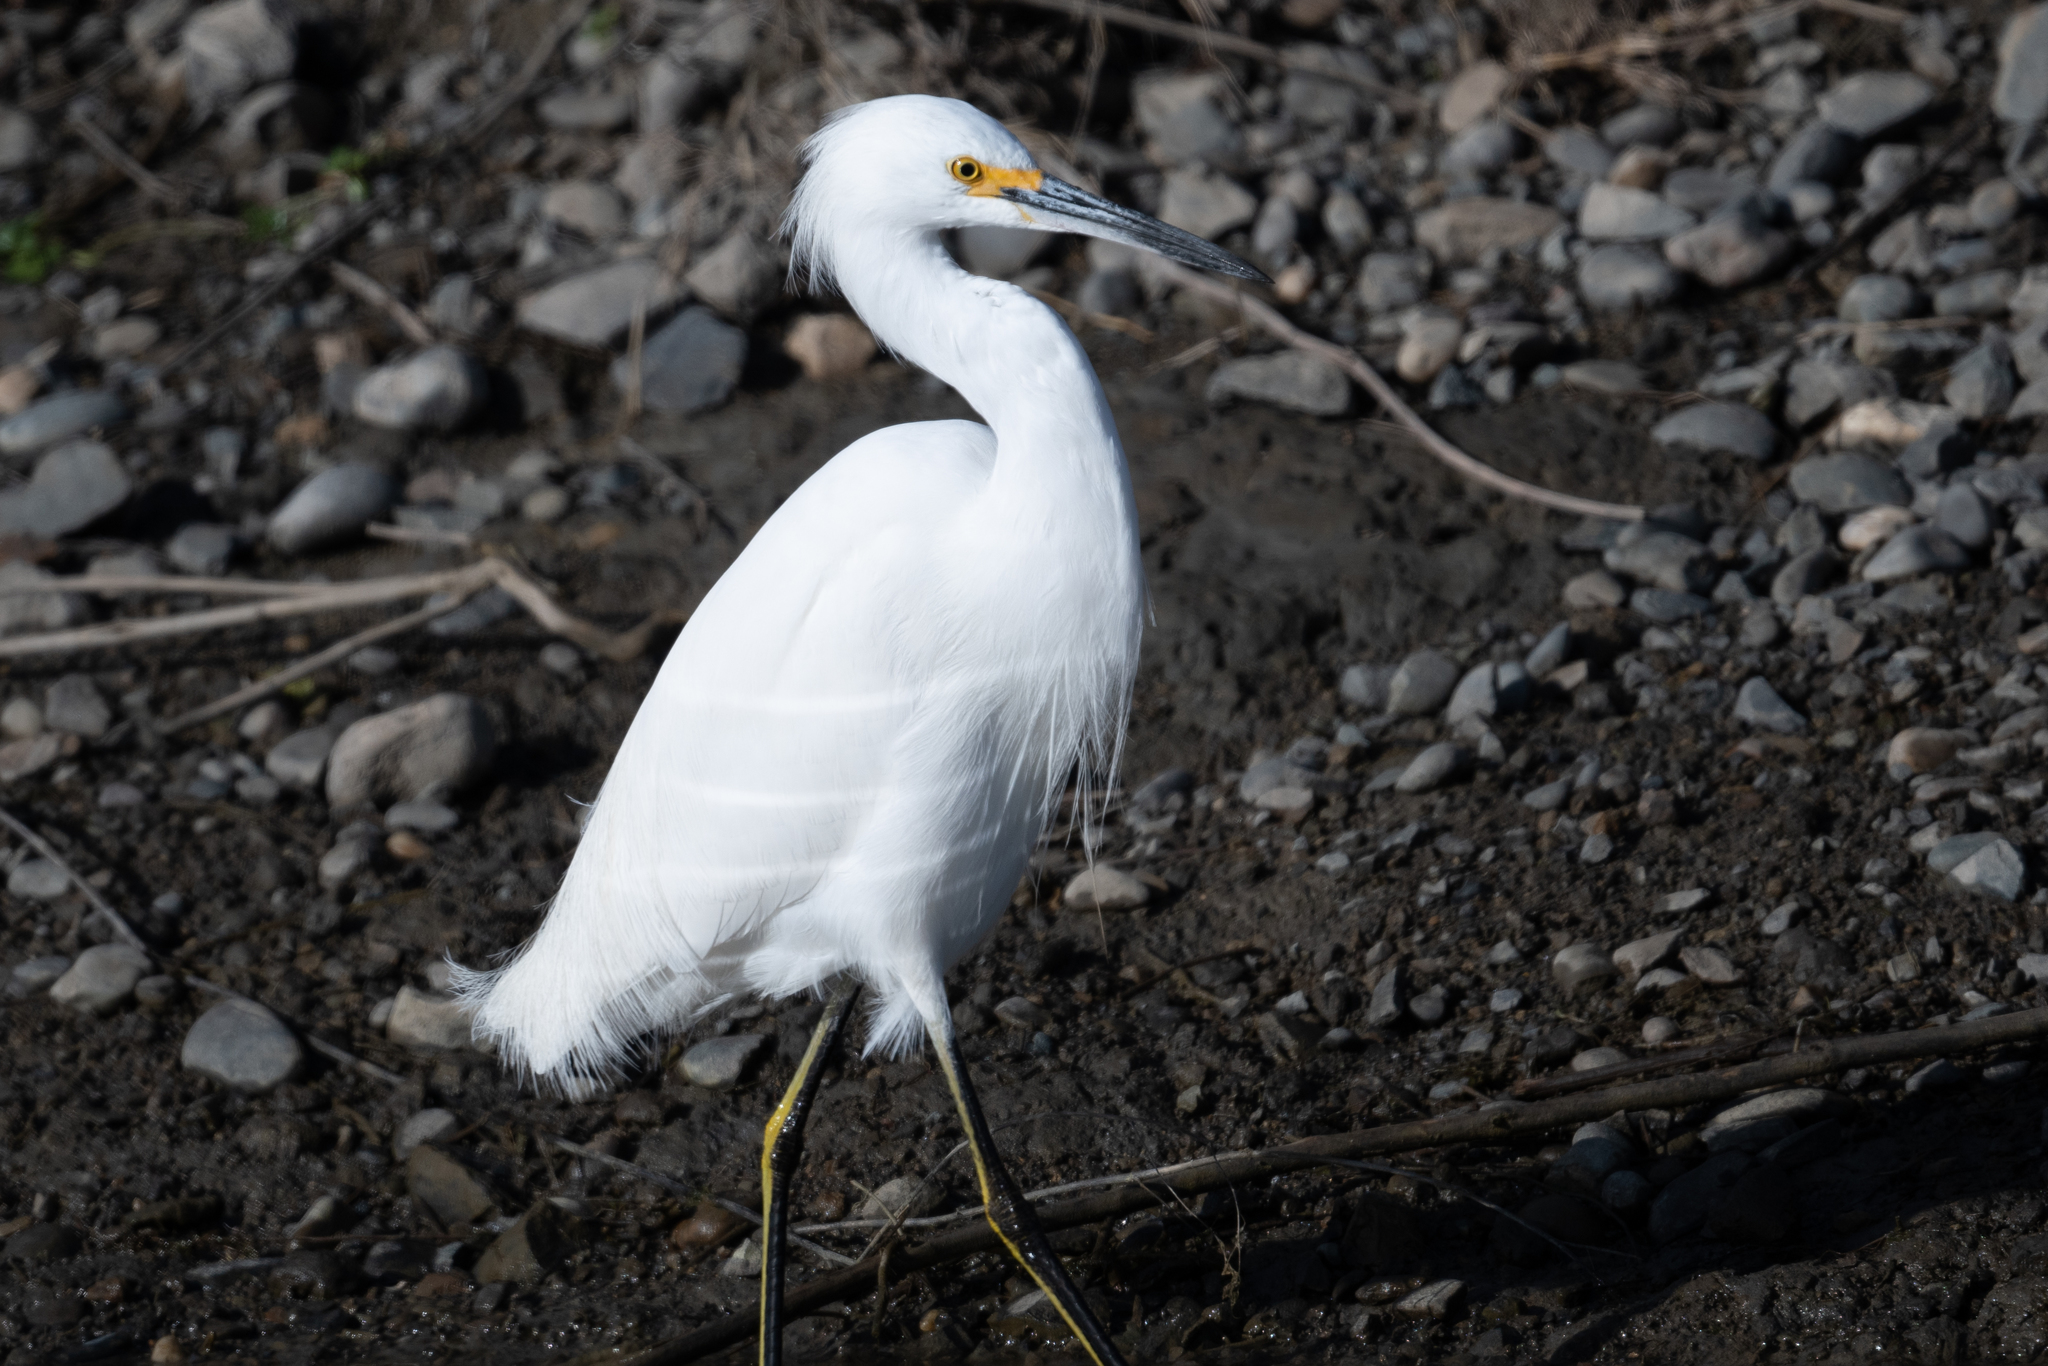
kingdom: Animalia
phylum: Chordata
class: Aves
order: Pelecaniformes
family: Ardeidae
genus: Egretta
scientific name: Egretta thula
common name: Snowy egret
